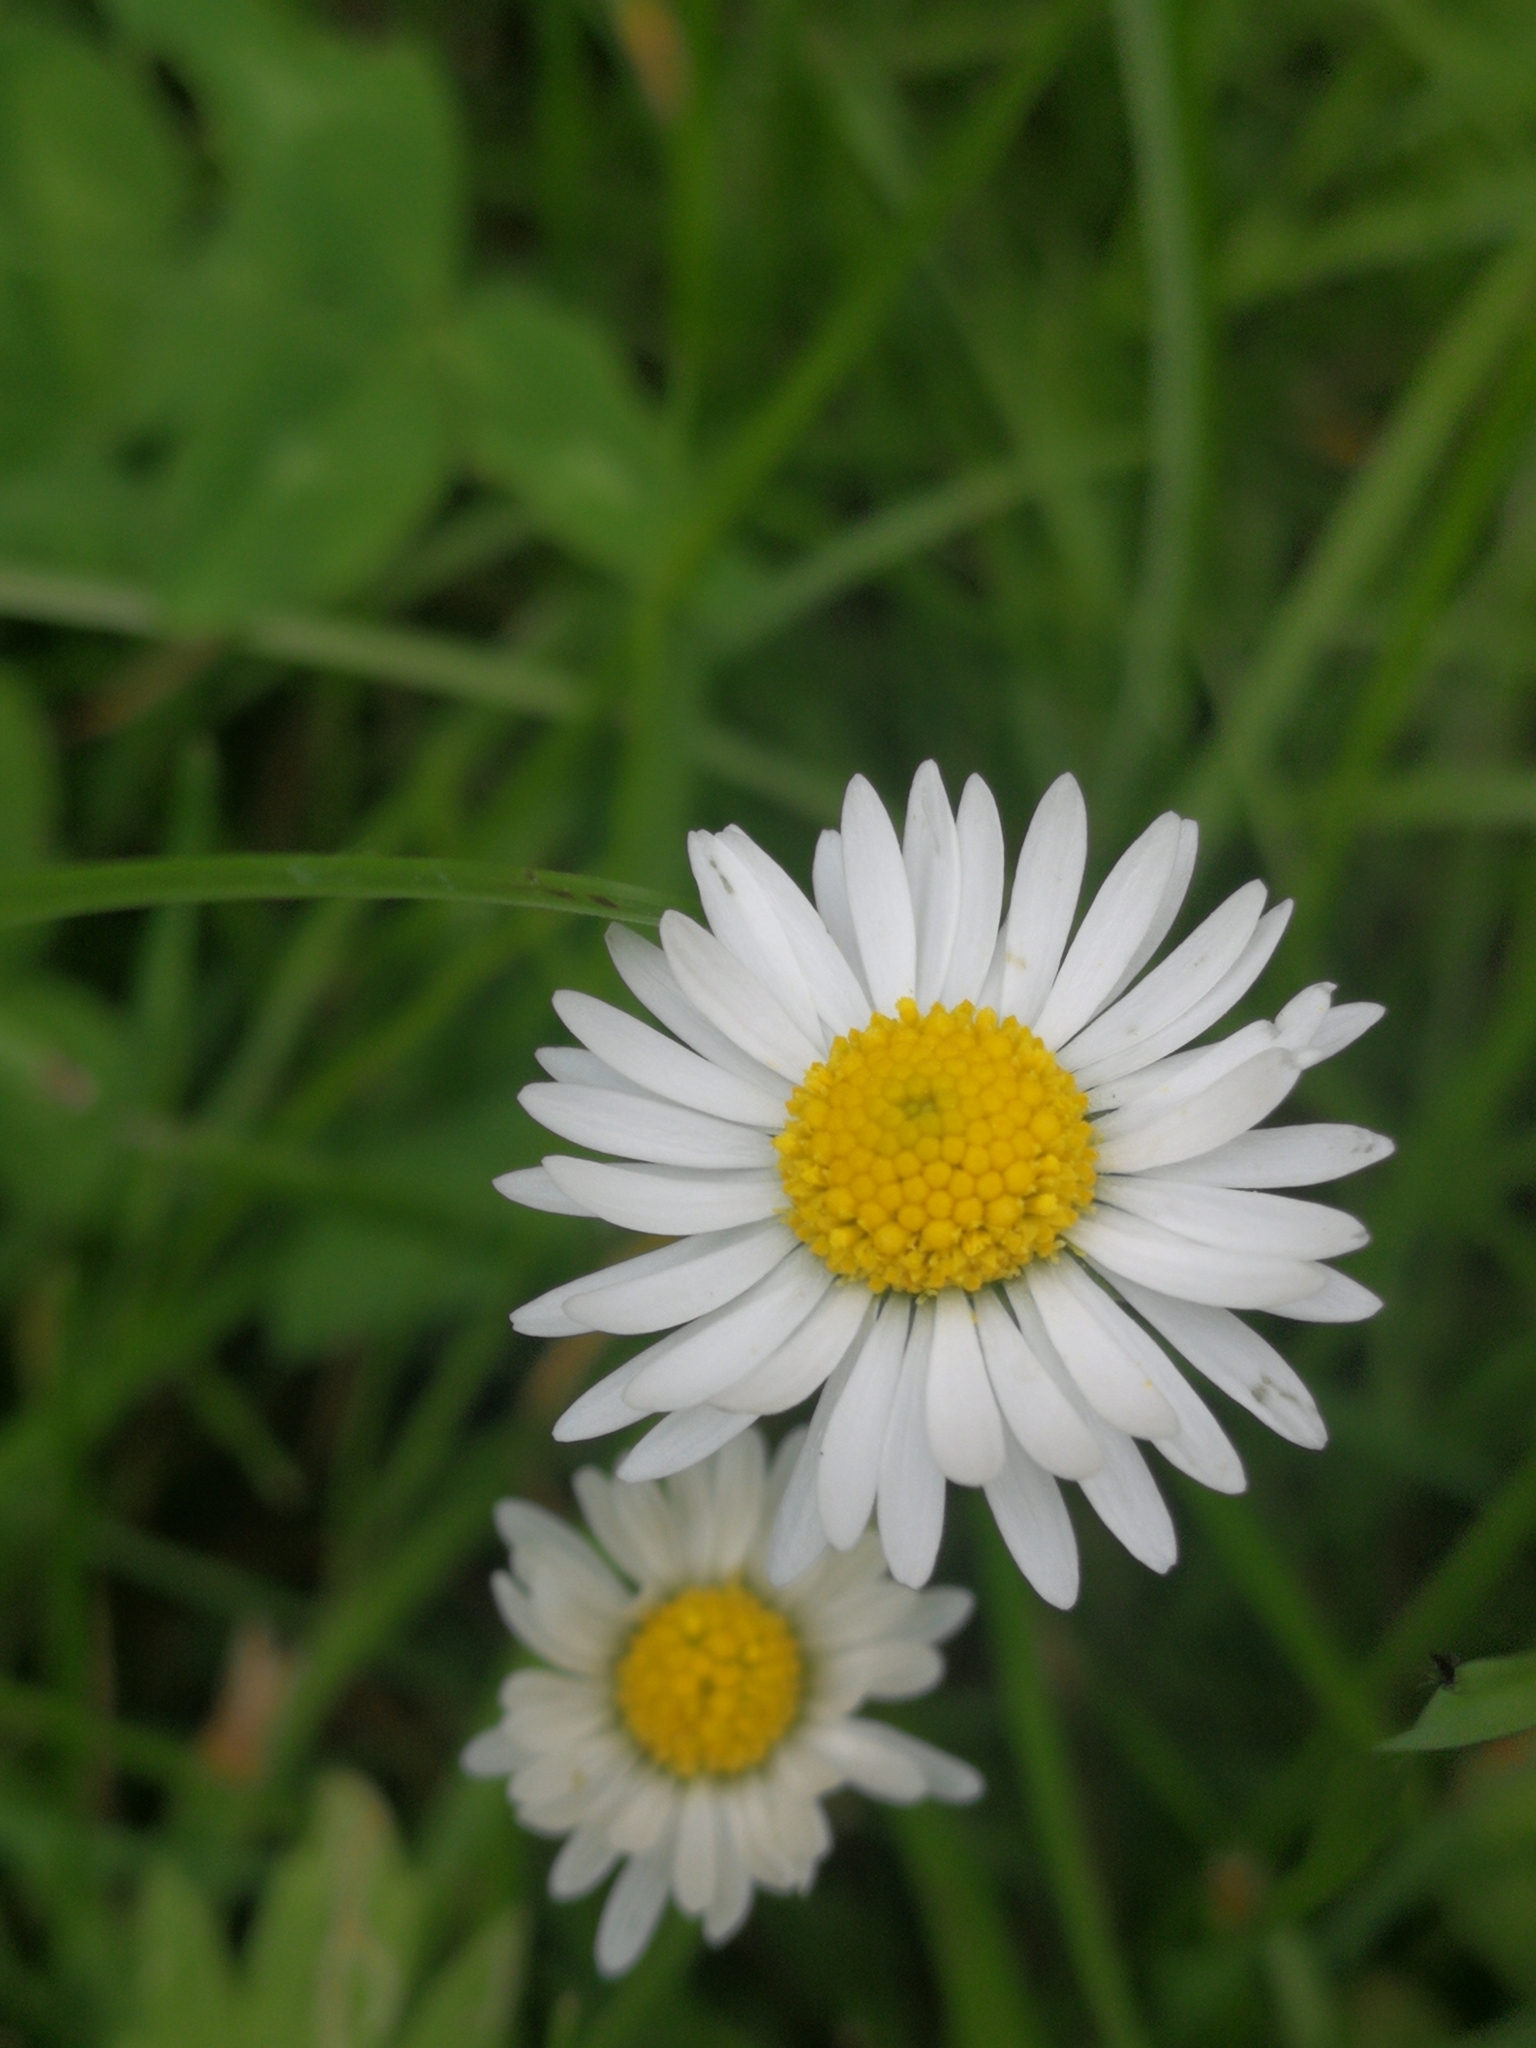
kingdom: Plantae
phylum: Tracheophyta
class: Magnoliopsida
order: Asterales
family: Asteraceae
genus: Bellis
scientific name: Bellis perennis
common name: Lawndaisy
